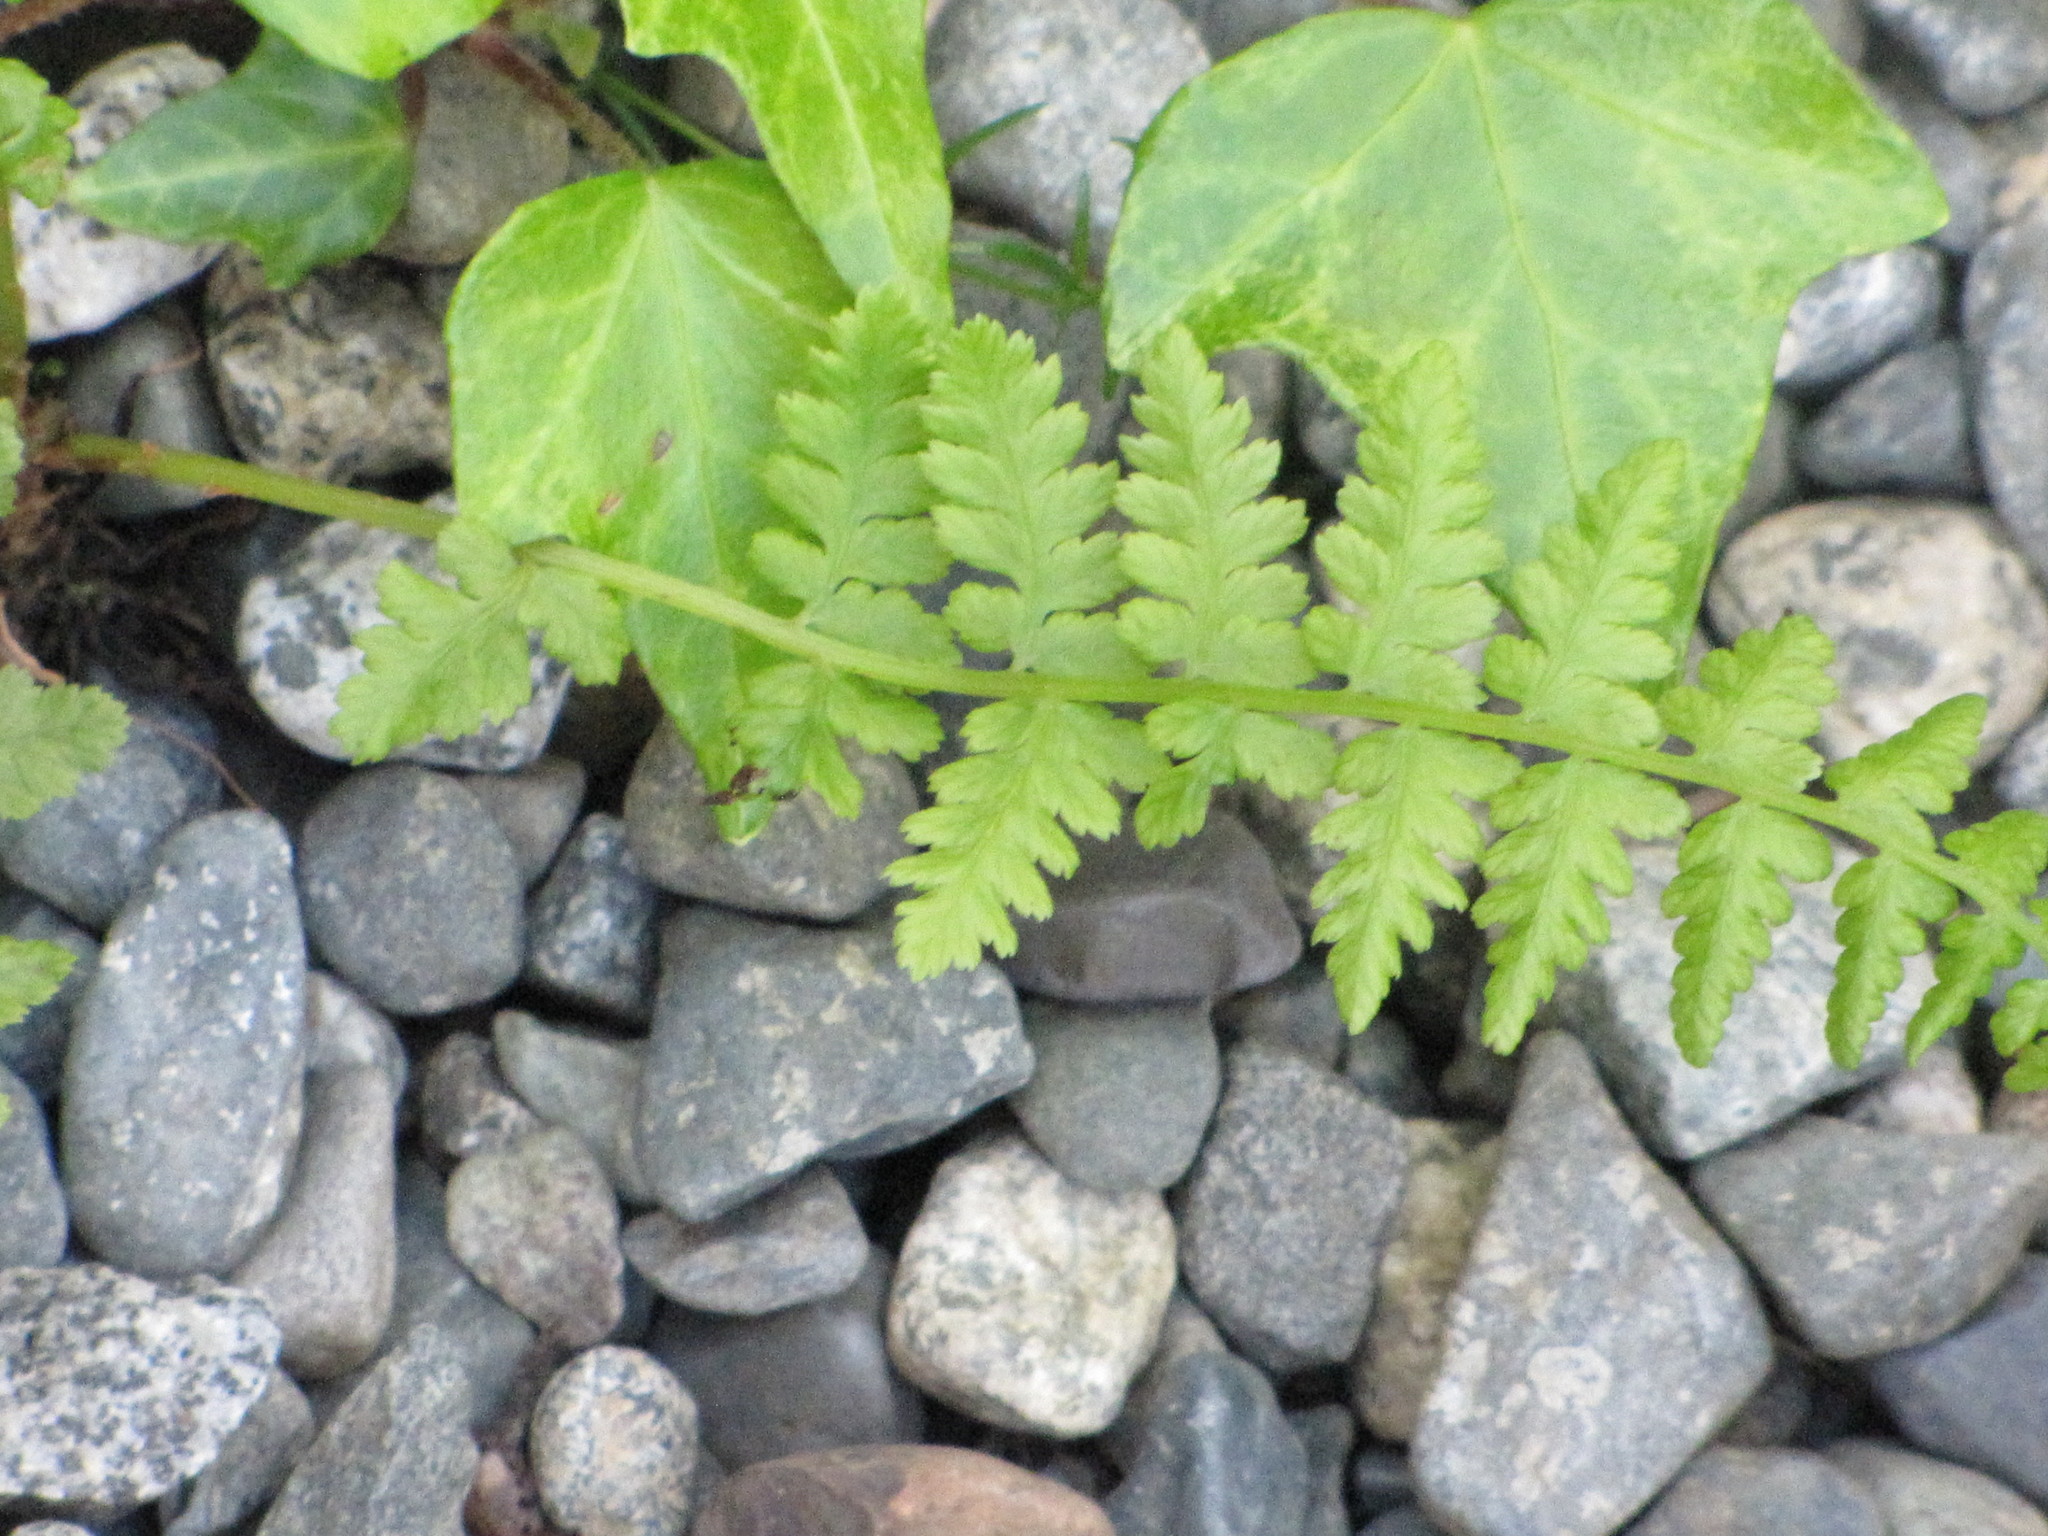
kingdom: Plantae
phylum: Tracheophyta
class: Polypodiopsida
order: Polypodiales
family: Athyriaceae
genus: Athyrium
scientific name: Athyrium filix-femina
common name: Lady fern
